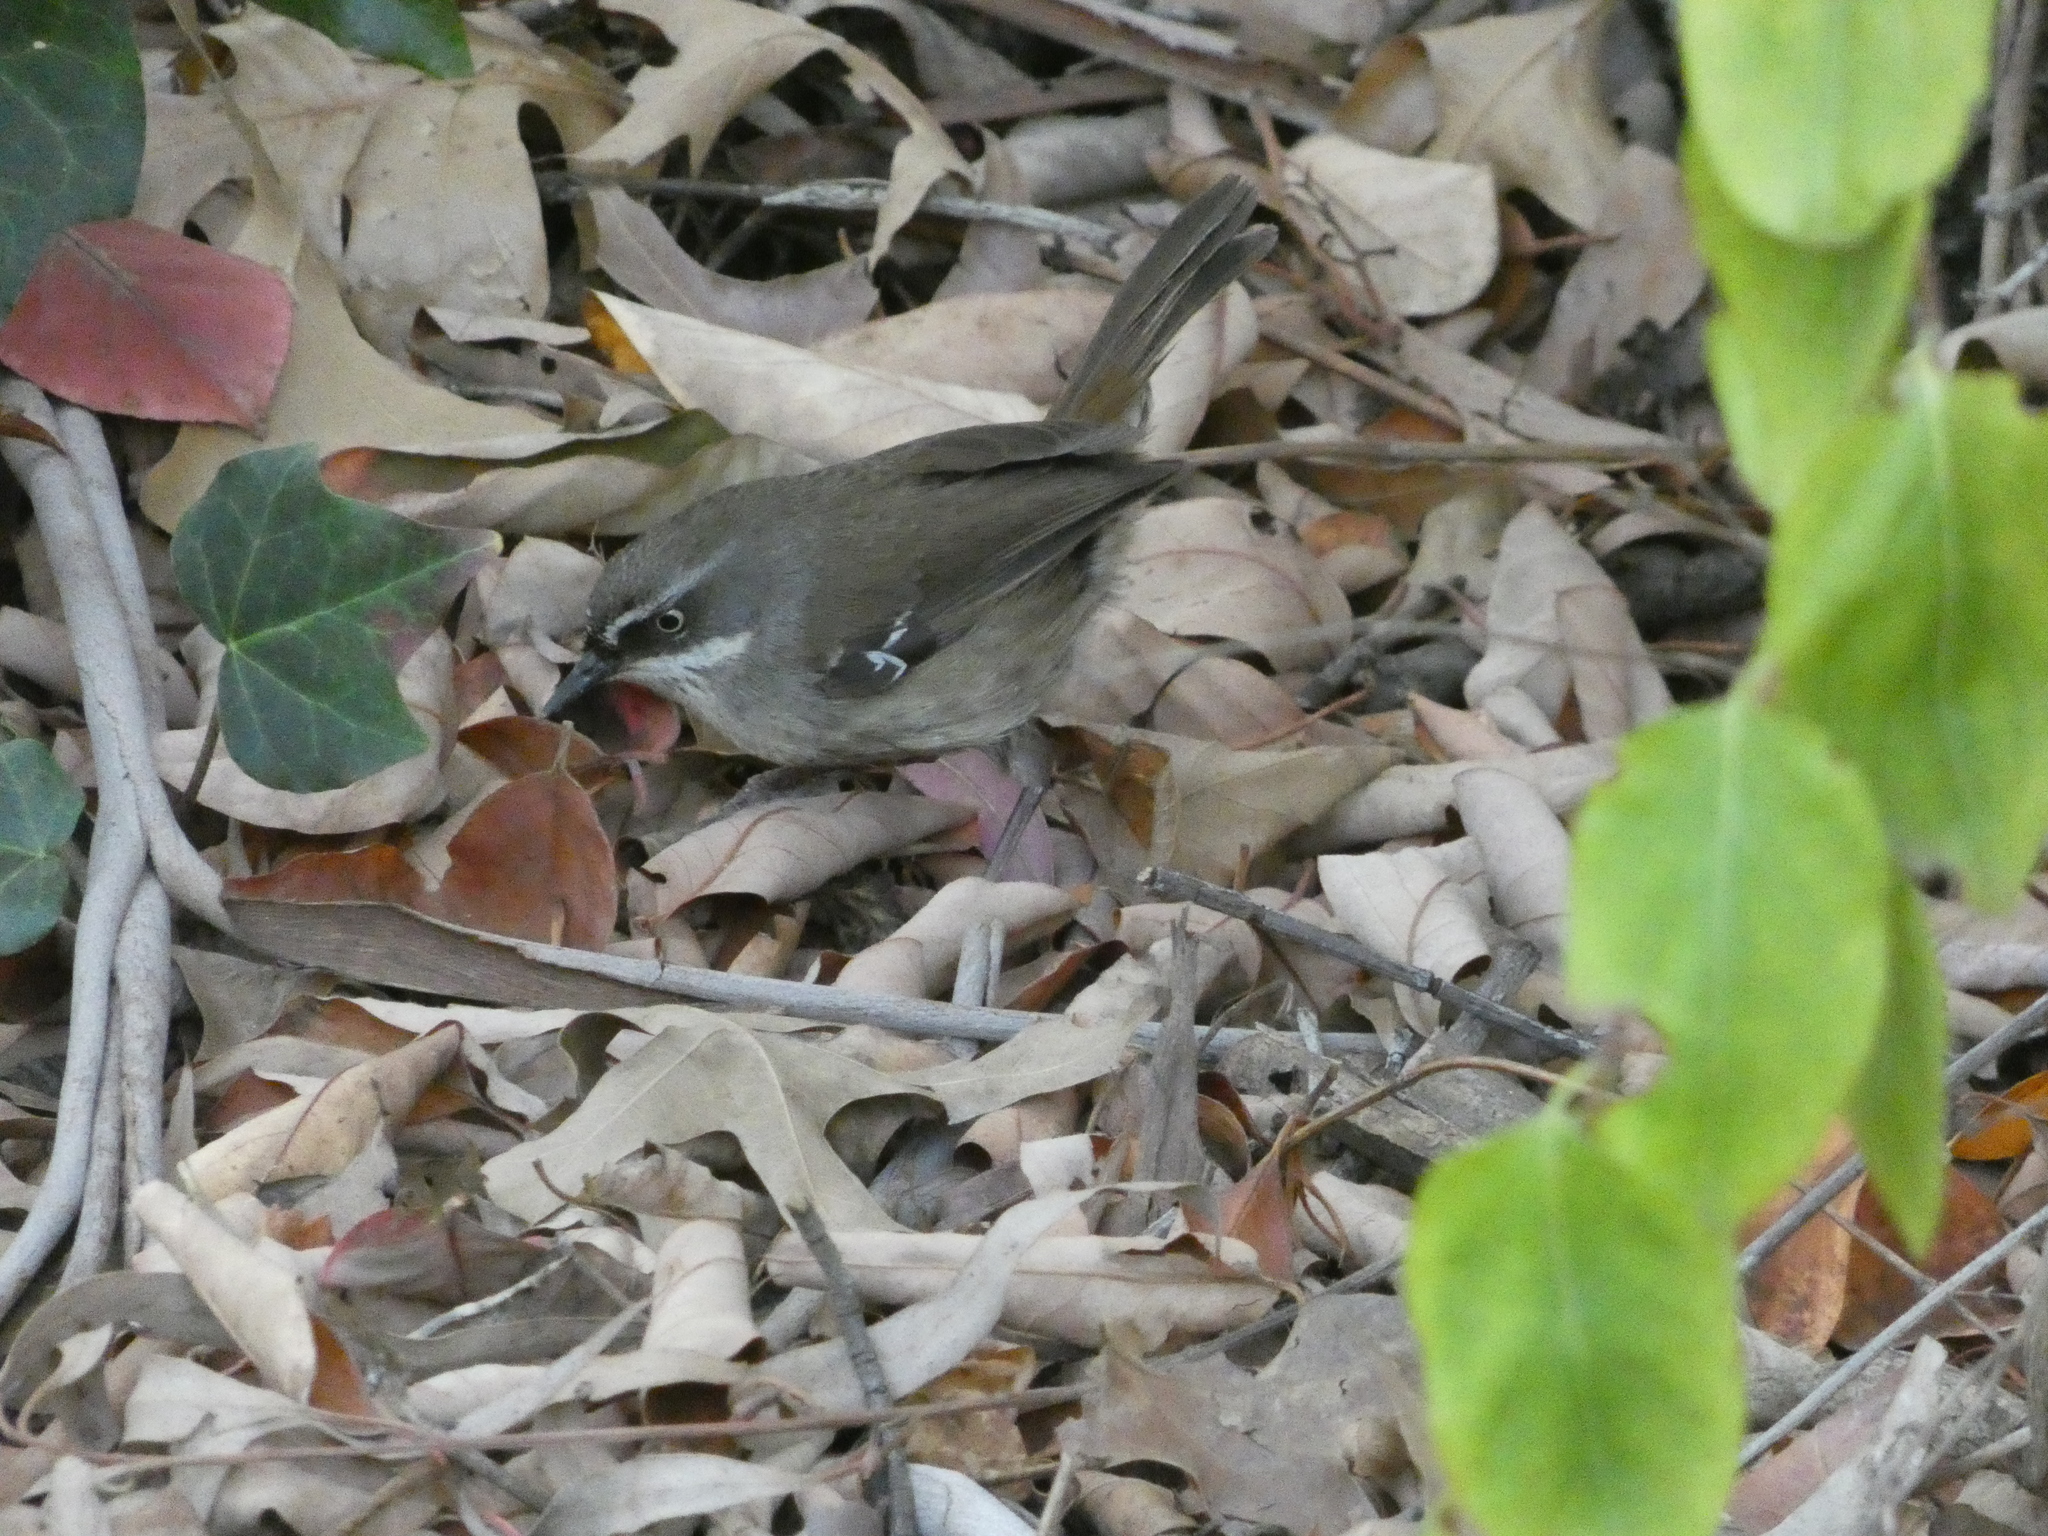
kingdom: Animalia
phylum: Chordata
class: Aves
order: Passeriformes
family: Acanthizidae
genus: Sericornis
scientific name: Sericornis frontalis
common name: White-browed scrubwren
